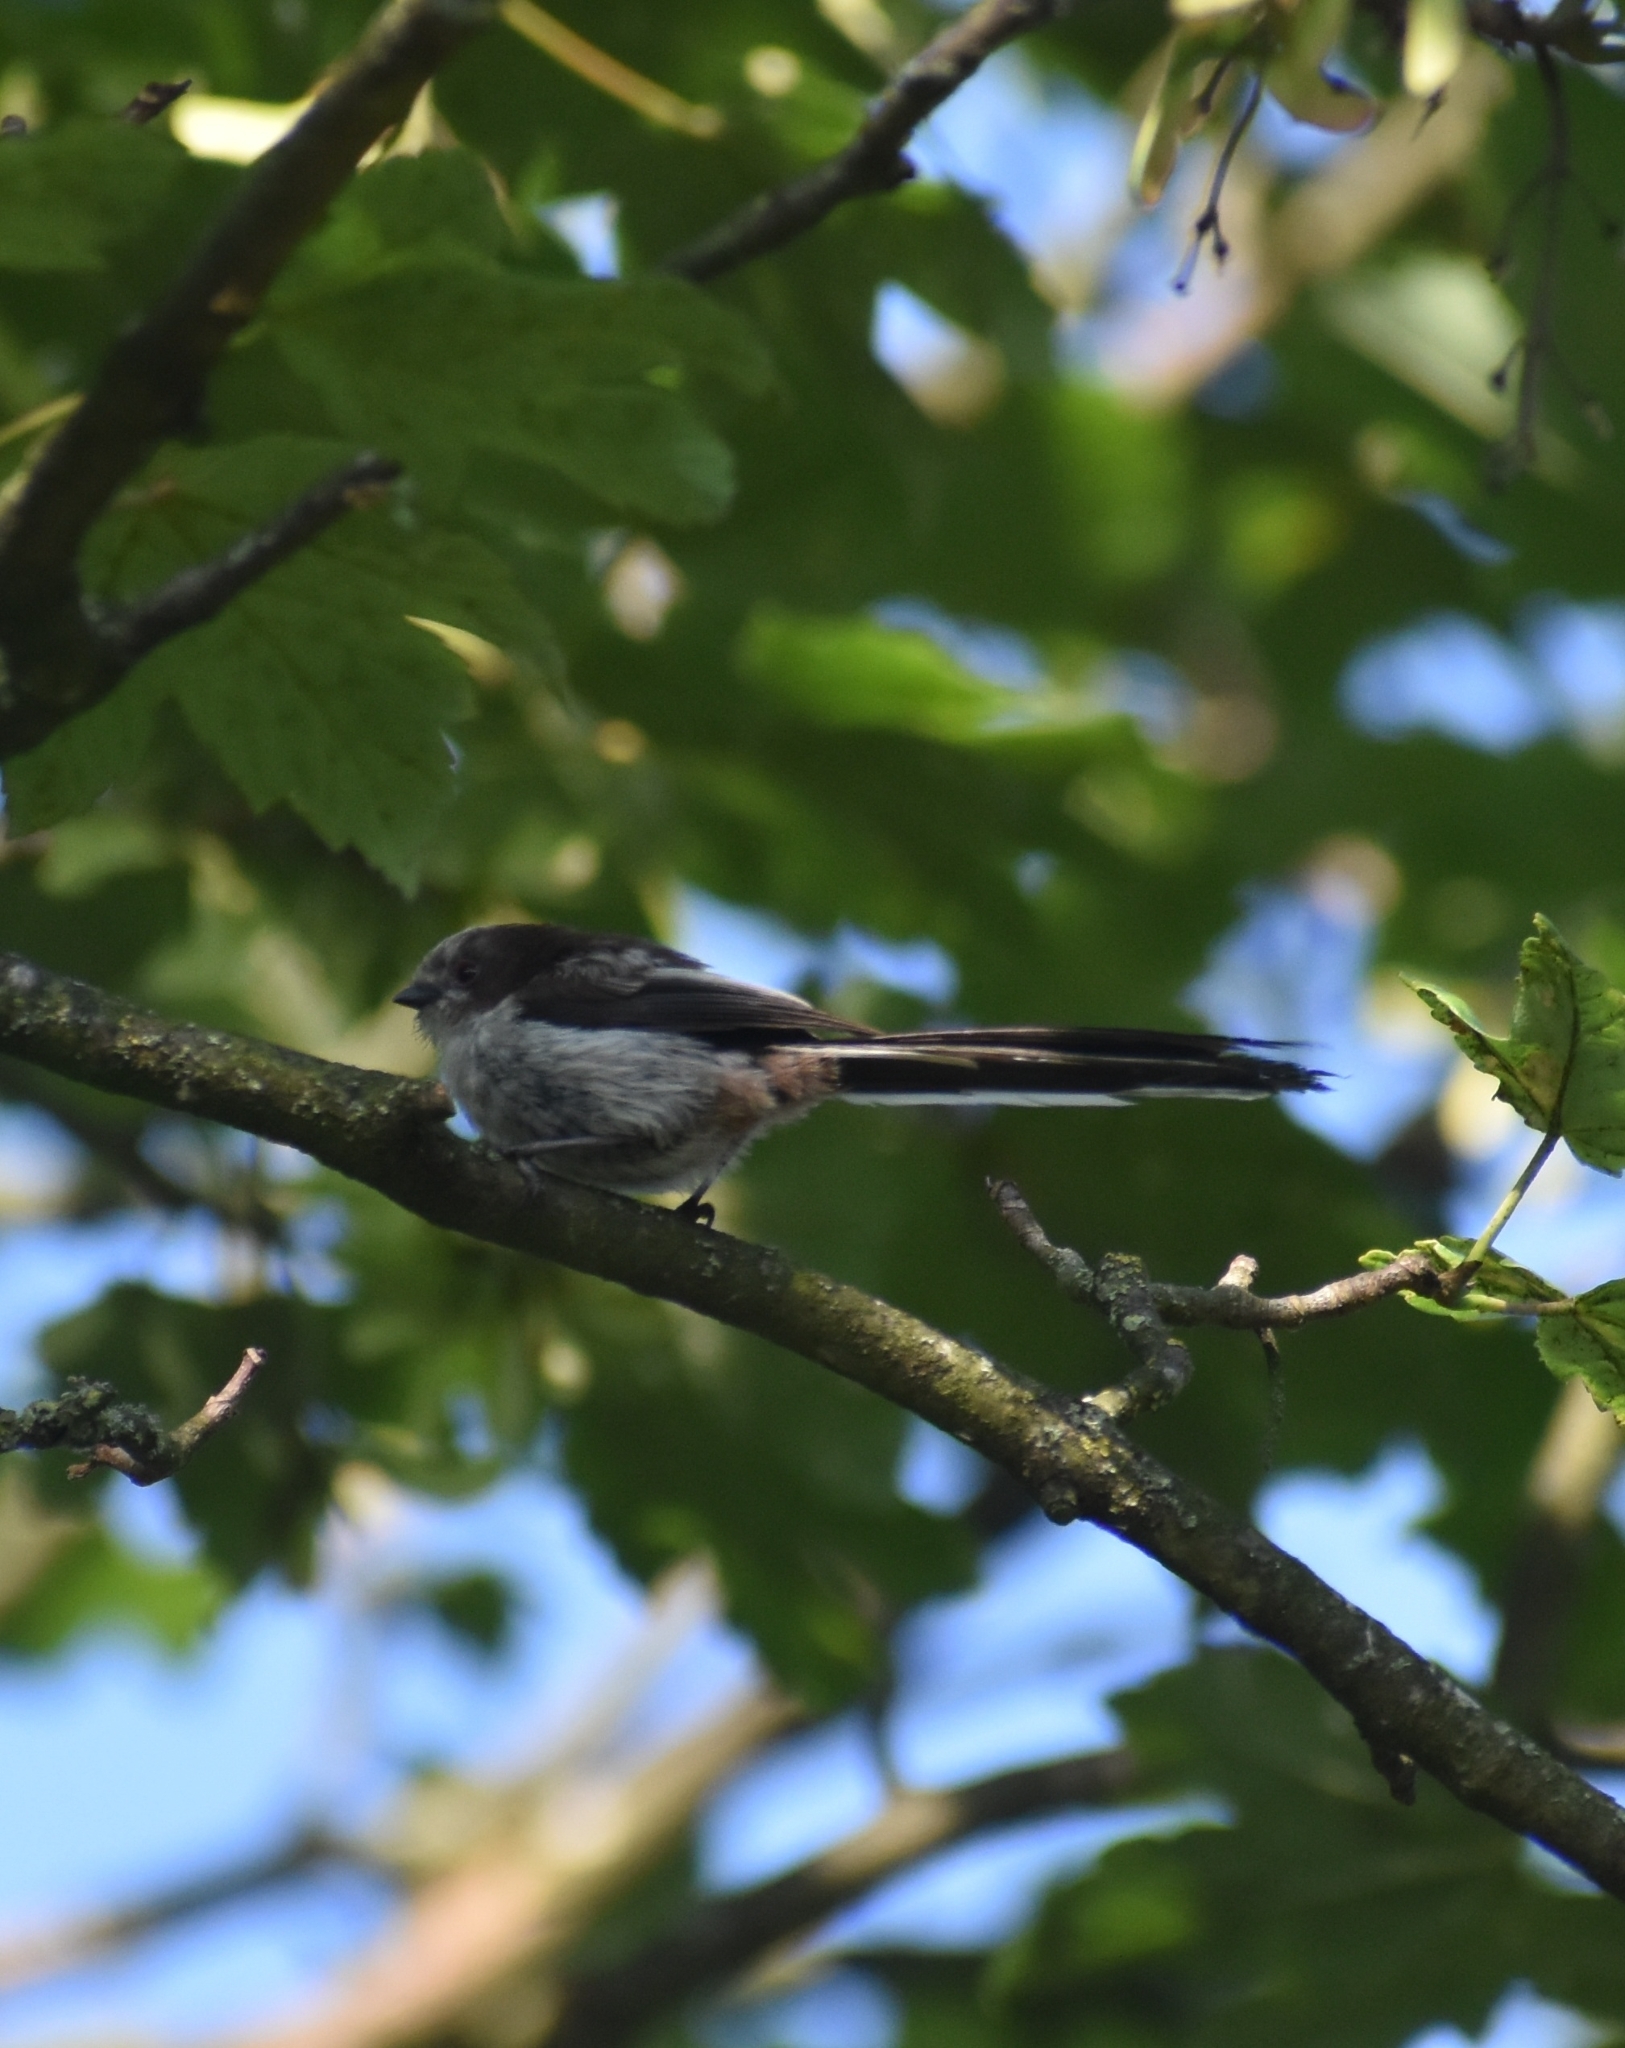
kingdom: Animalia
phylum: Chordata
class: Aves
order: Passeriformes
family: Aegithalidae
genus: Aegithalos
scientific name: Aegithalos caudatus
